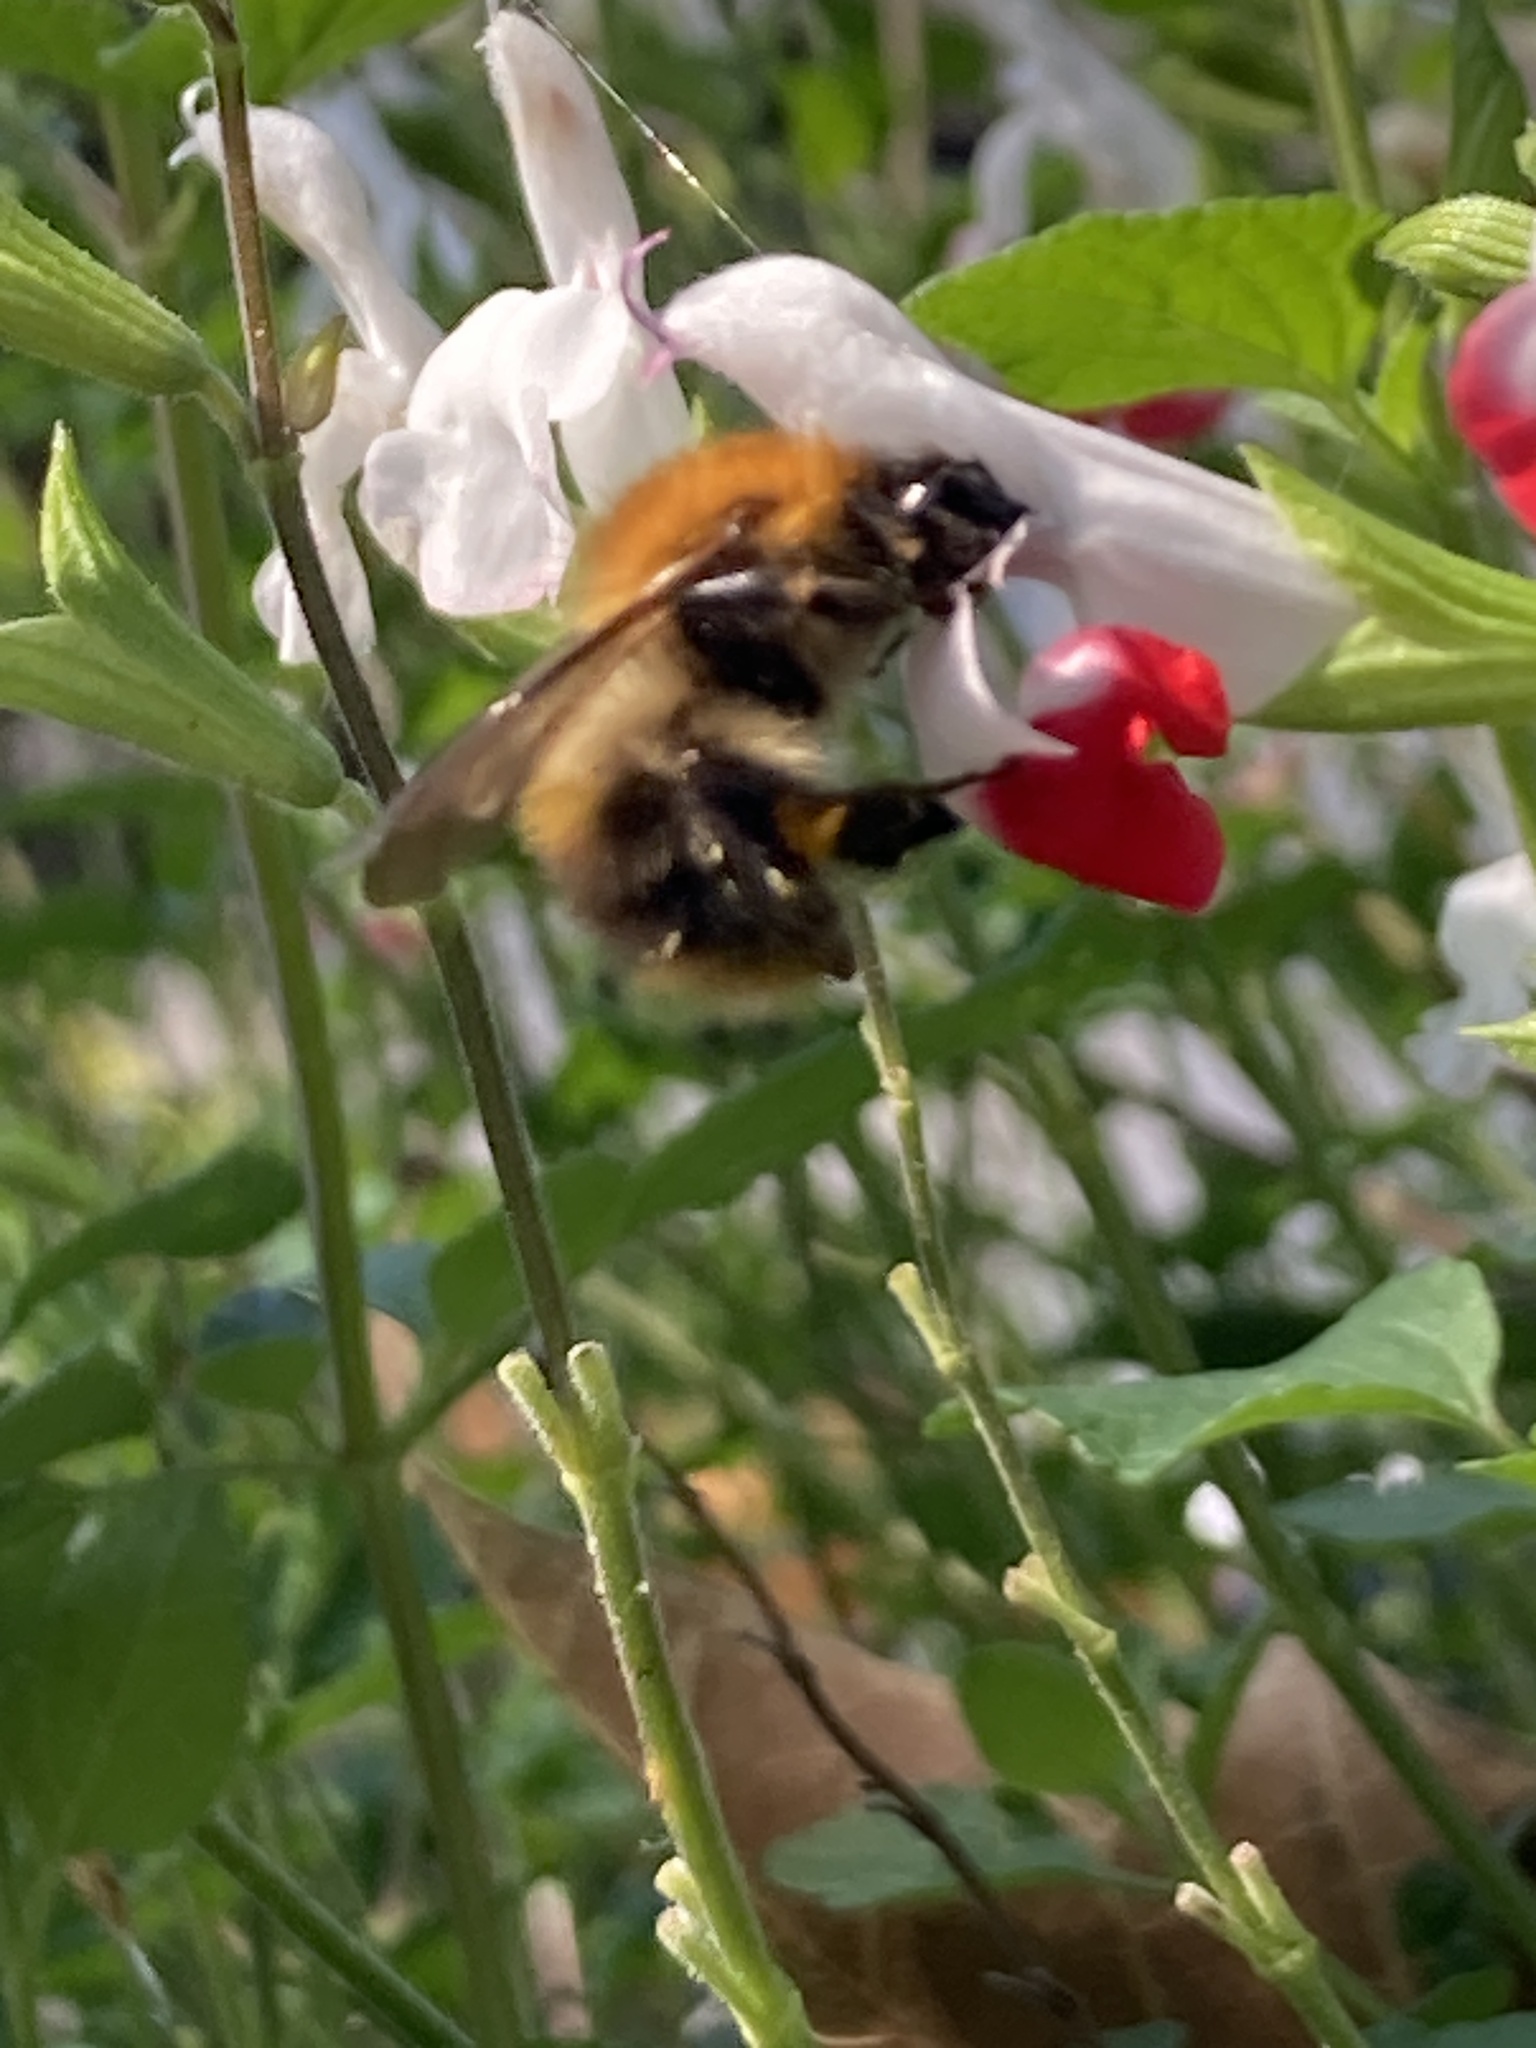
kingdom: Animalia
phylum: Arthropoda
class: Insecta
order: Hymenoptera
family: Apidae
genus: Bombus
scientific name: Bombus pascuorum
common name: Common carder bee
